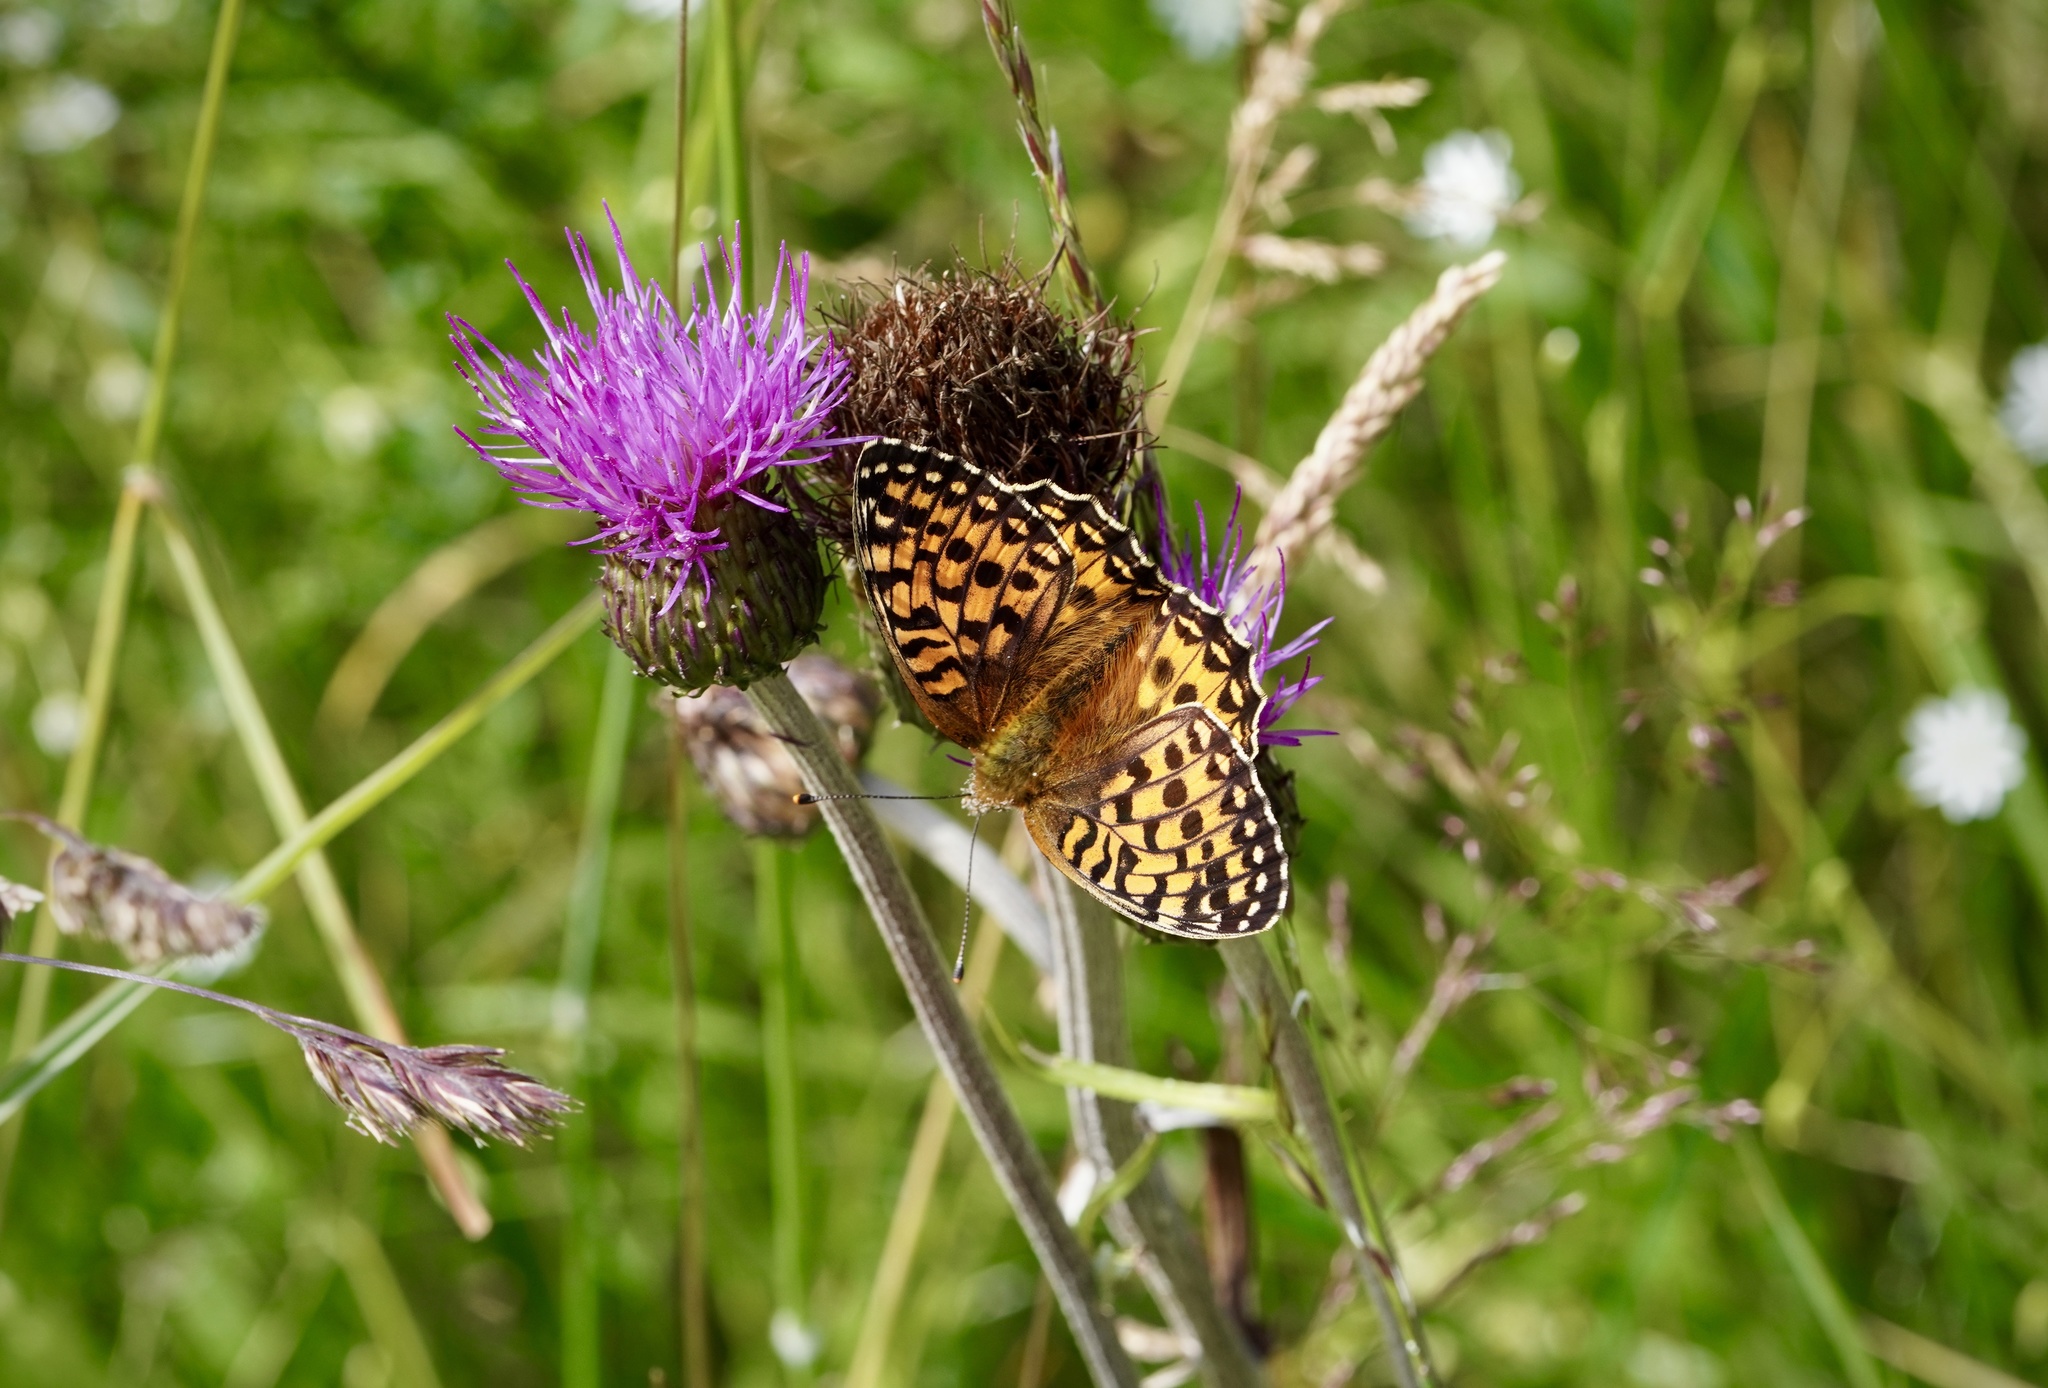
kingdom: Animalia
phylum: Arthropoda
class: Insecta
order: Lepidoptera
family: Nymphalidae
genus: Speyeria
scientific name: Speyeria aglaja
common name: Dark green fritillary
